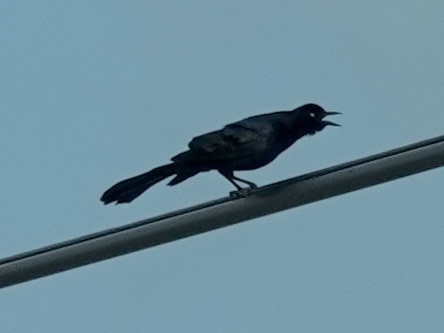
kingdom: Animalia
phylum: Chordata
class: Aves
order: Passeriformes
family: Icteridae
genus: Quiscalus
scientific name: Quiscalus mexicanus
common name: Great-tailed grackle
